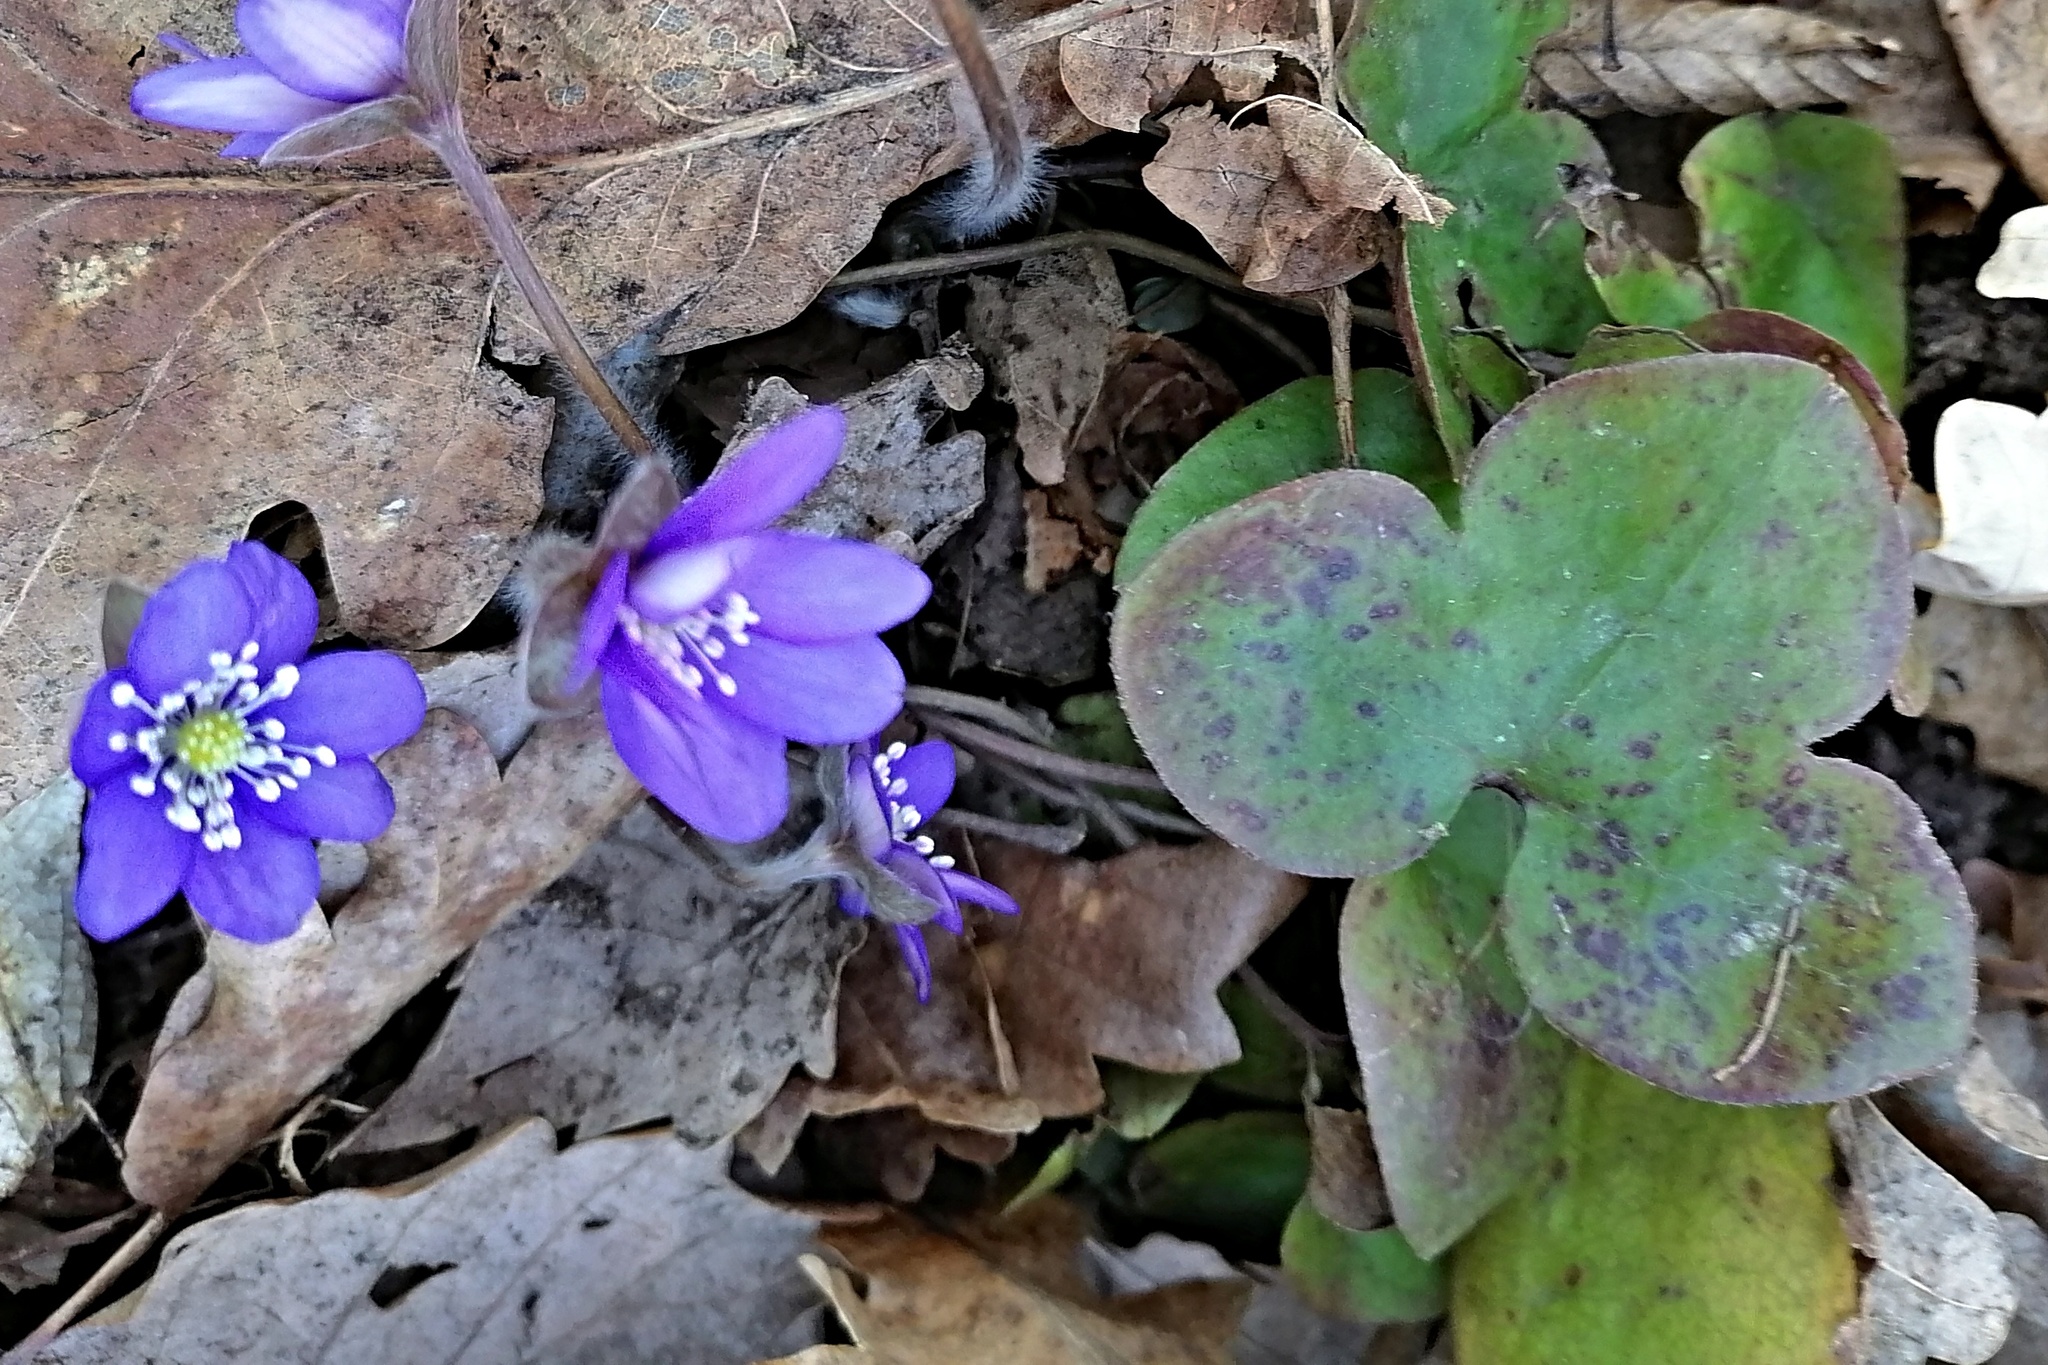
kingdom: Plantae
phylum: Tracheophyta
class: Magnoliopsida
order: Ranunculales
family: Ranunculaceae
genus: Hepatica
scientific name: Hepatica nobilis
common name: Liverleaf
